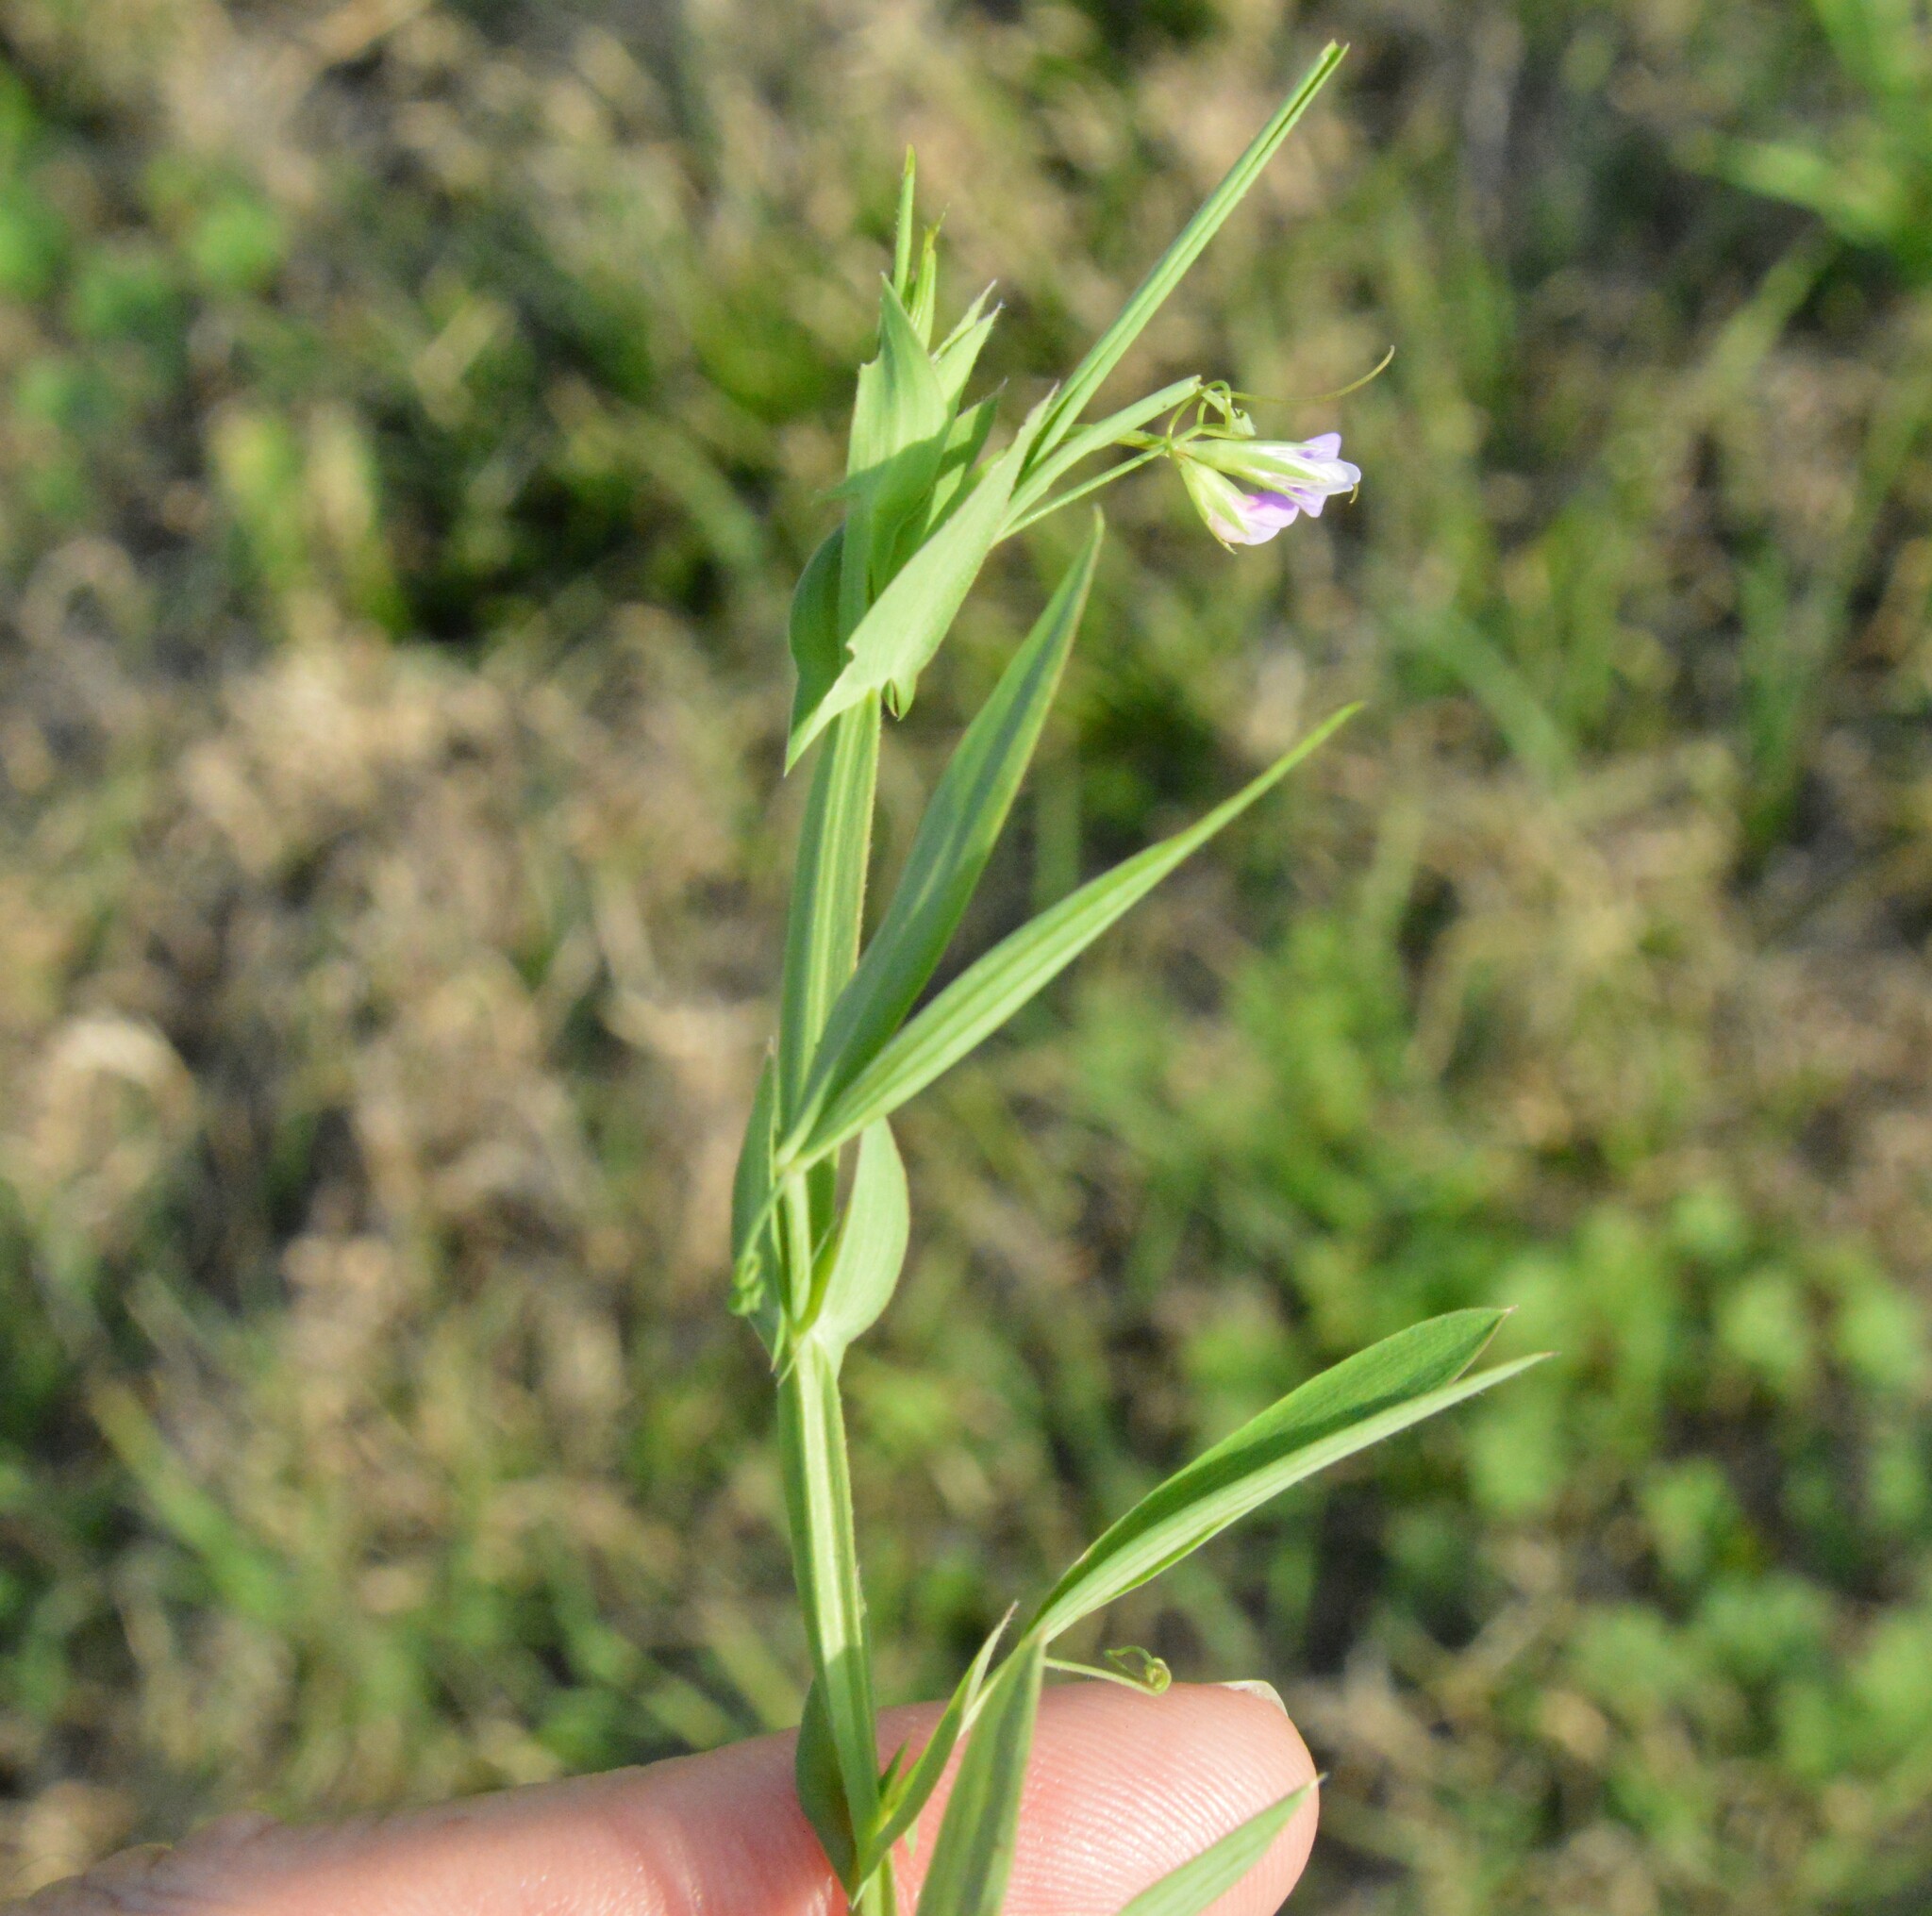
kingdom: Plantae
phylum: Tracheophyta
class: Magnoliopsida
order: Fabales
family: Fabaceae
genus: Lathyrus
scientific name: Lathyrus pusillus
